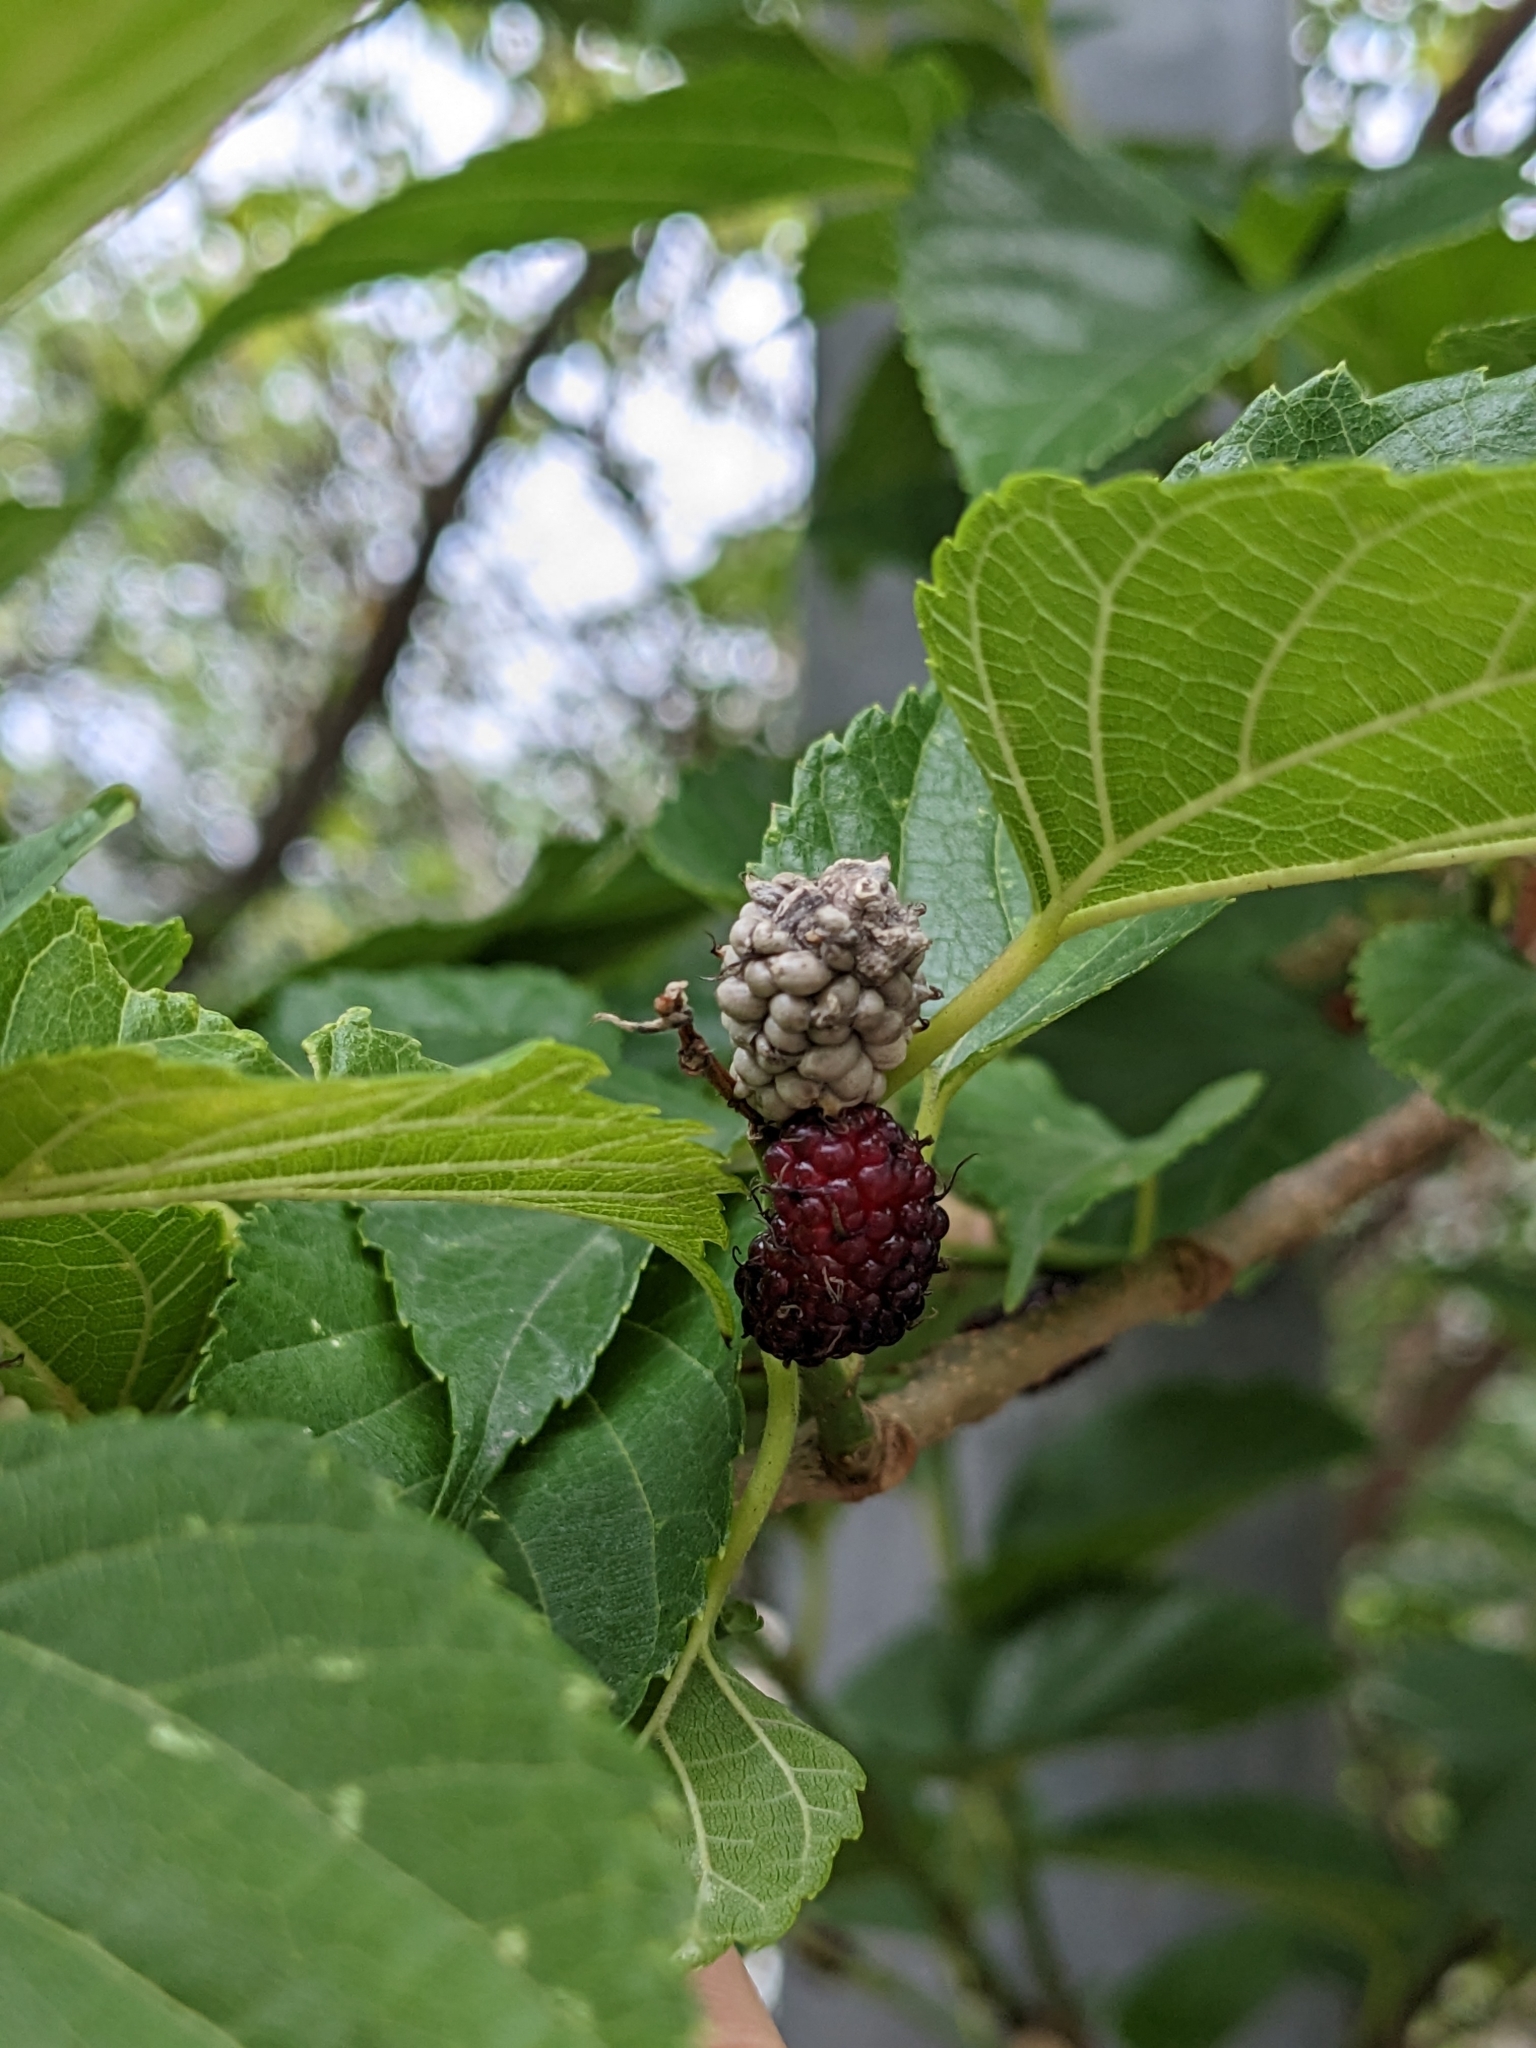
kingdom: Fungi
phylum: Ascomycota
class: Leotiomycetes
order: Helotiales
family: Sclerotiniaceae
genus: Ciboria
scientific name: Ciboria shiraiana
